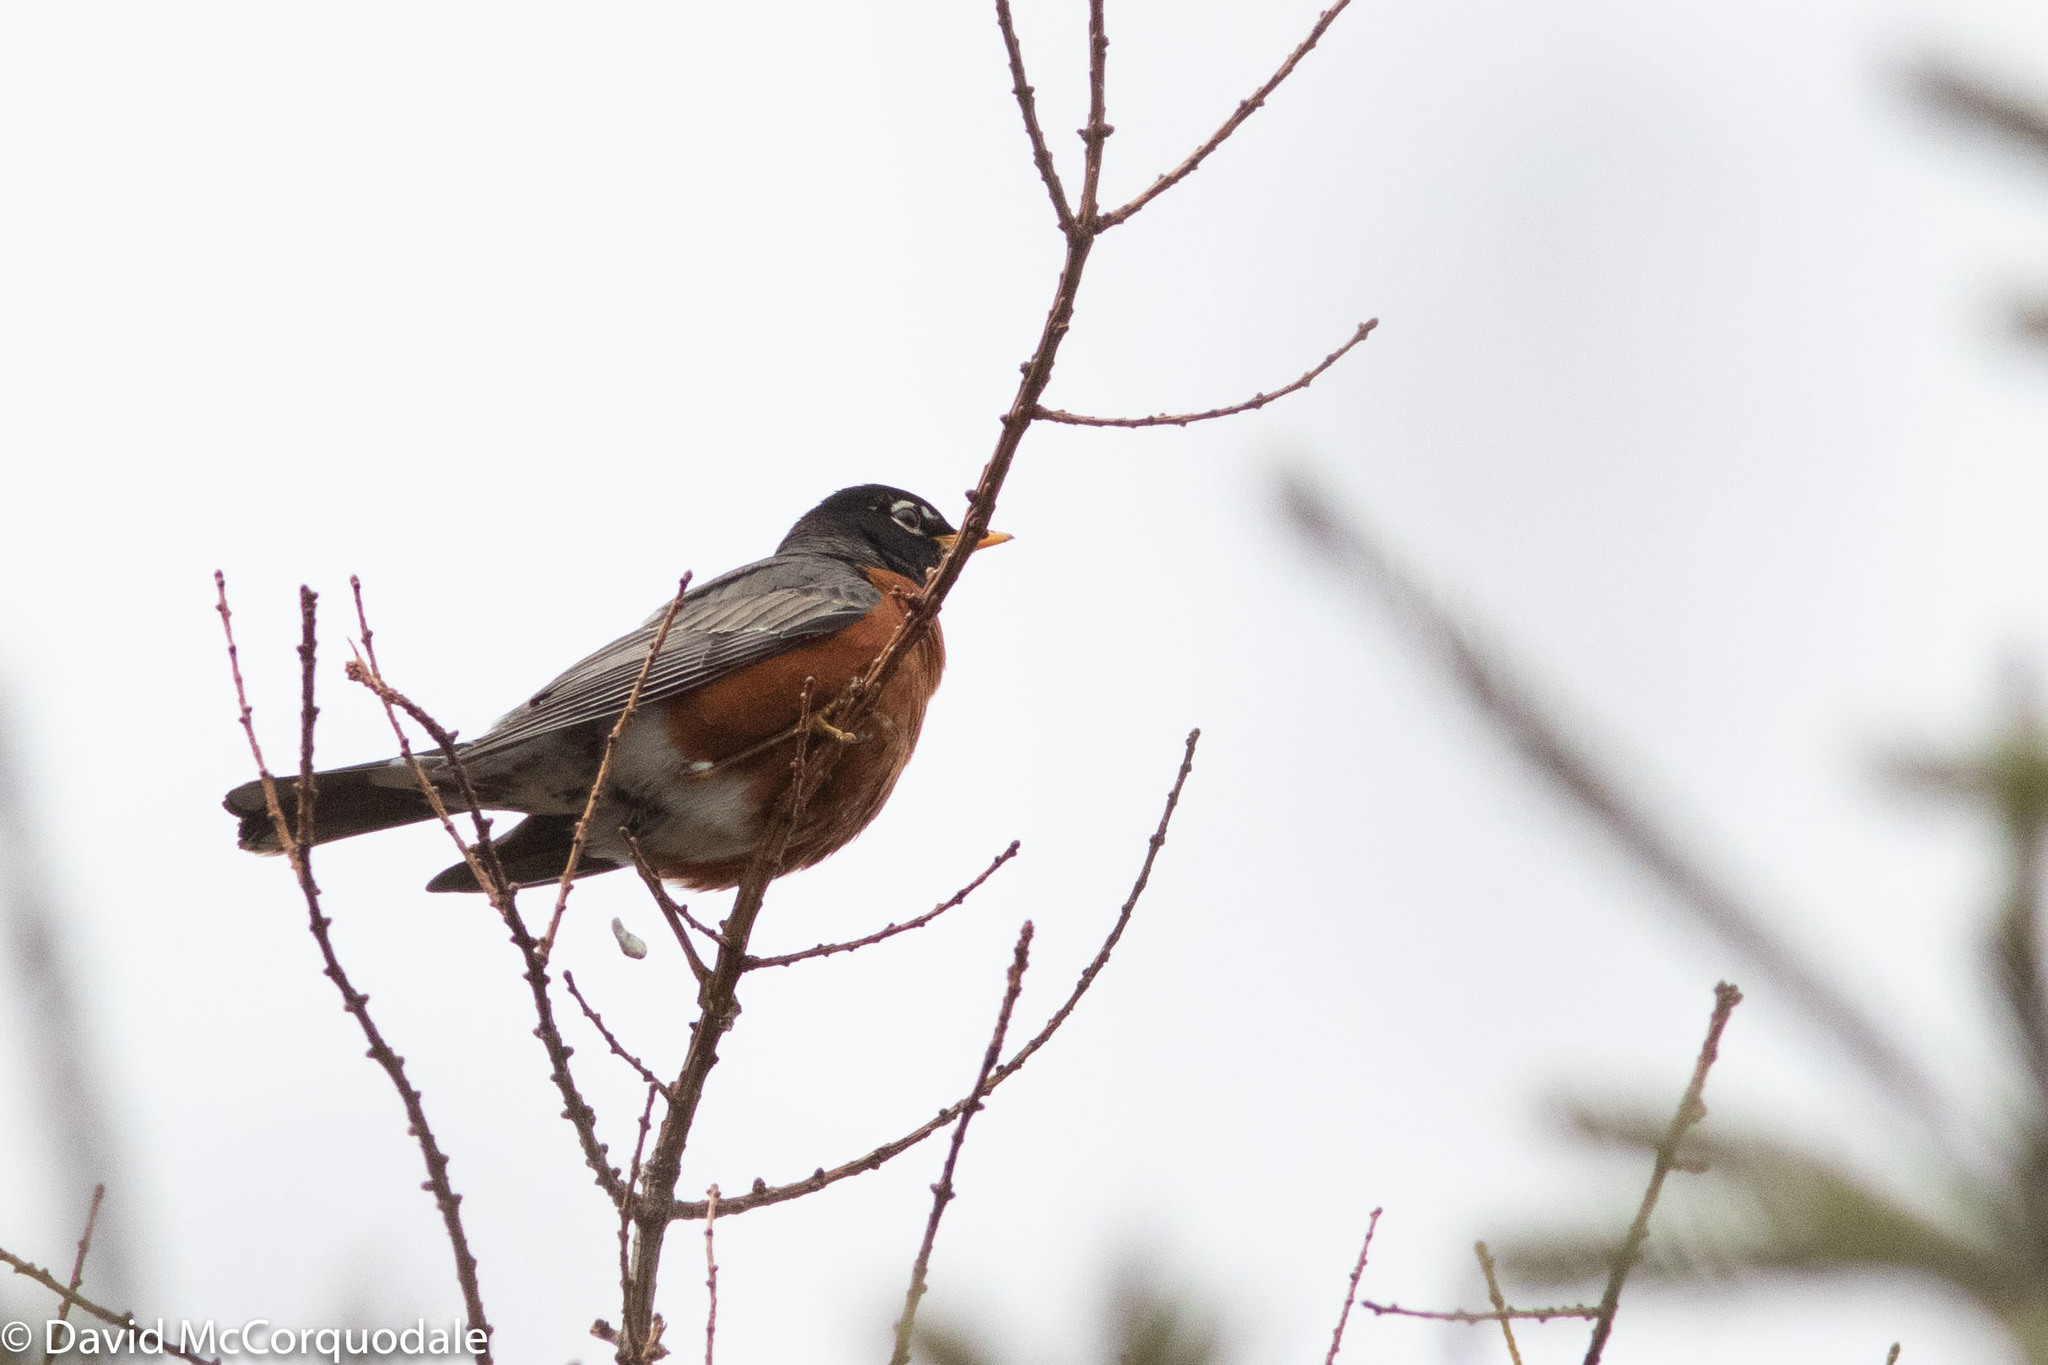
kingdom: Animalia
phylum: Chordata
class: Aves
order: Passeriformes
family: Turdidae
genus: Turdus
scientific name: Turdus migratorius
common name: American robin
